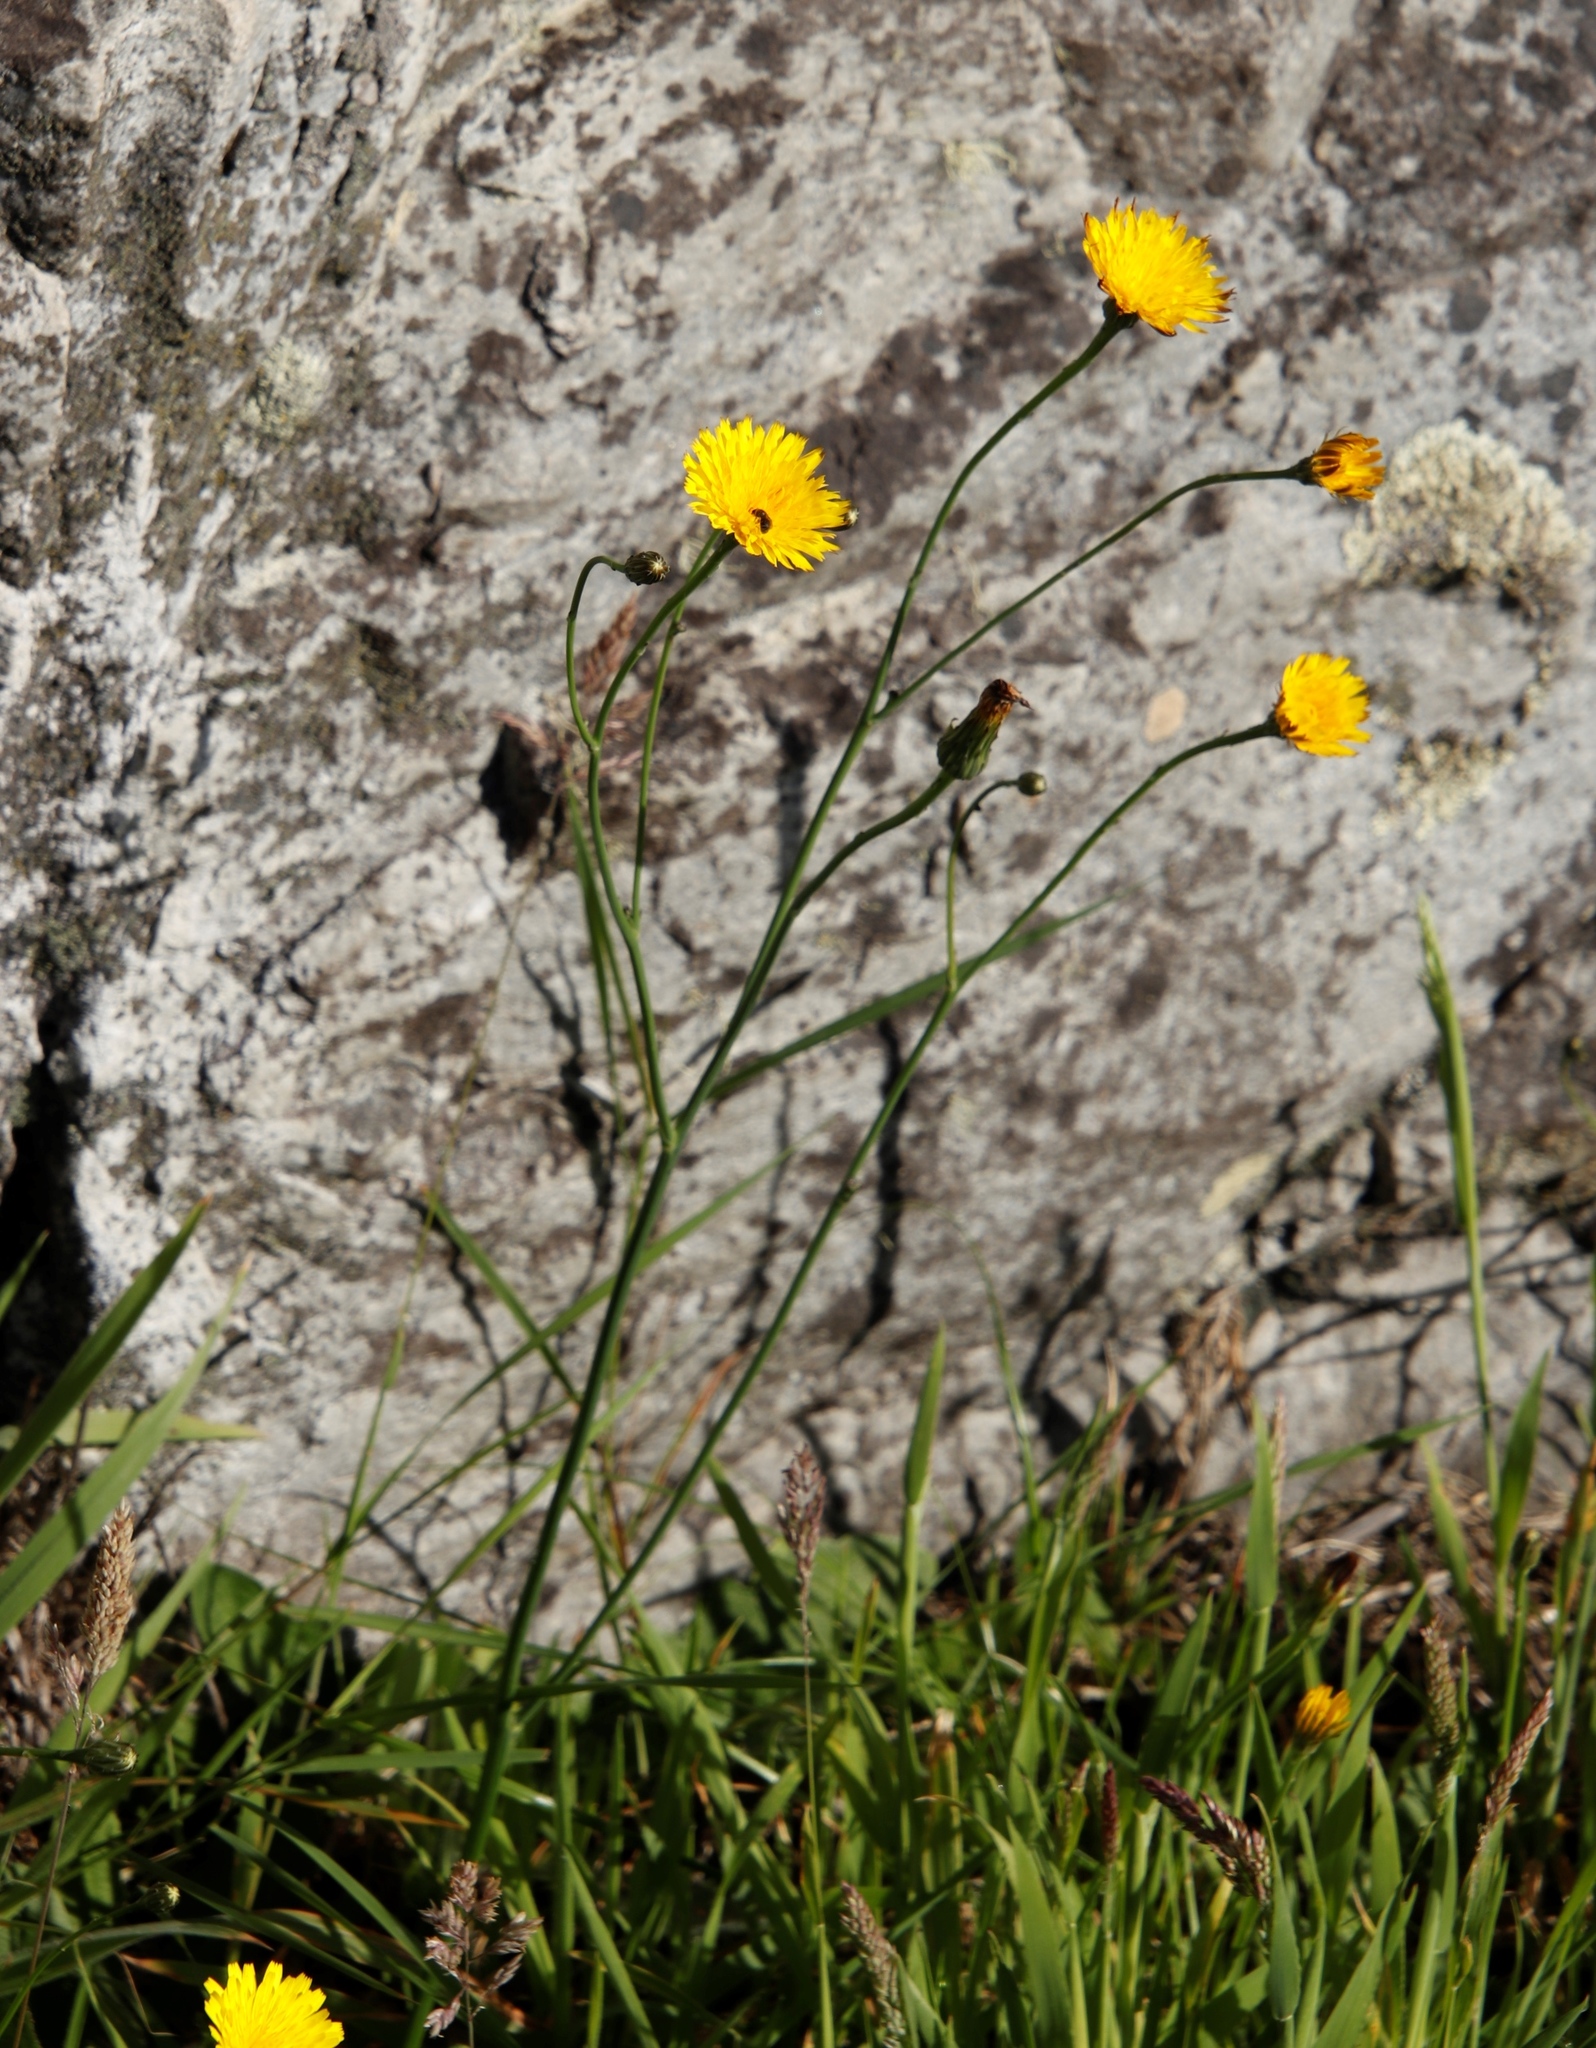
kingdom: Plantae
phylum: Tracheophyta
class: Magnoliopsida
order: Asterales
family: Asteraceae
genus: Hypochaeris
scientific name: Hypochaeris radicata
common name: Flatweed
